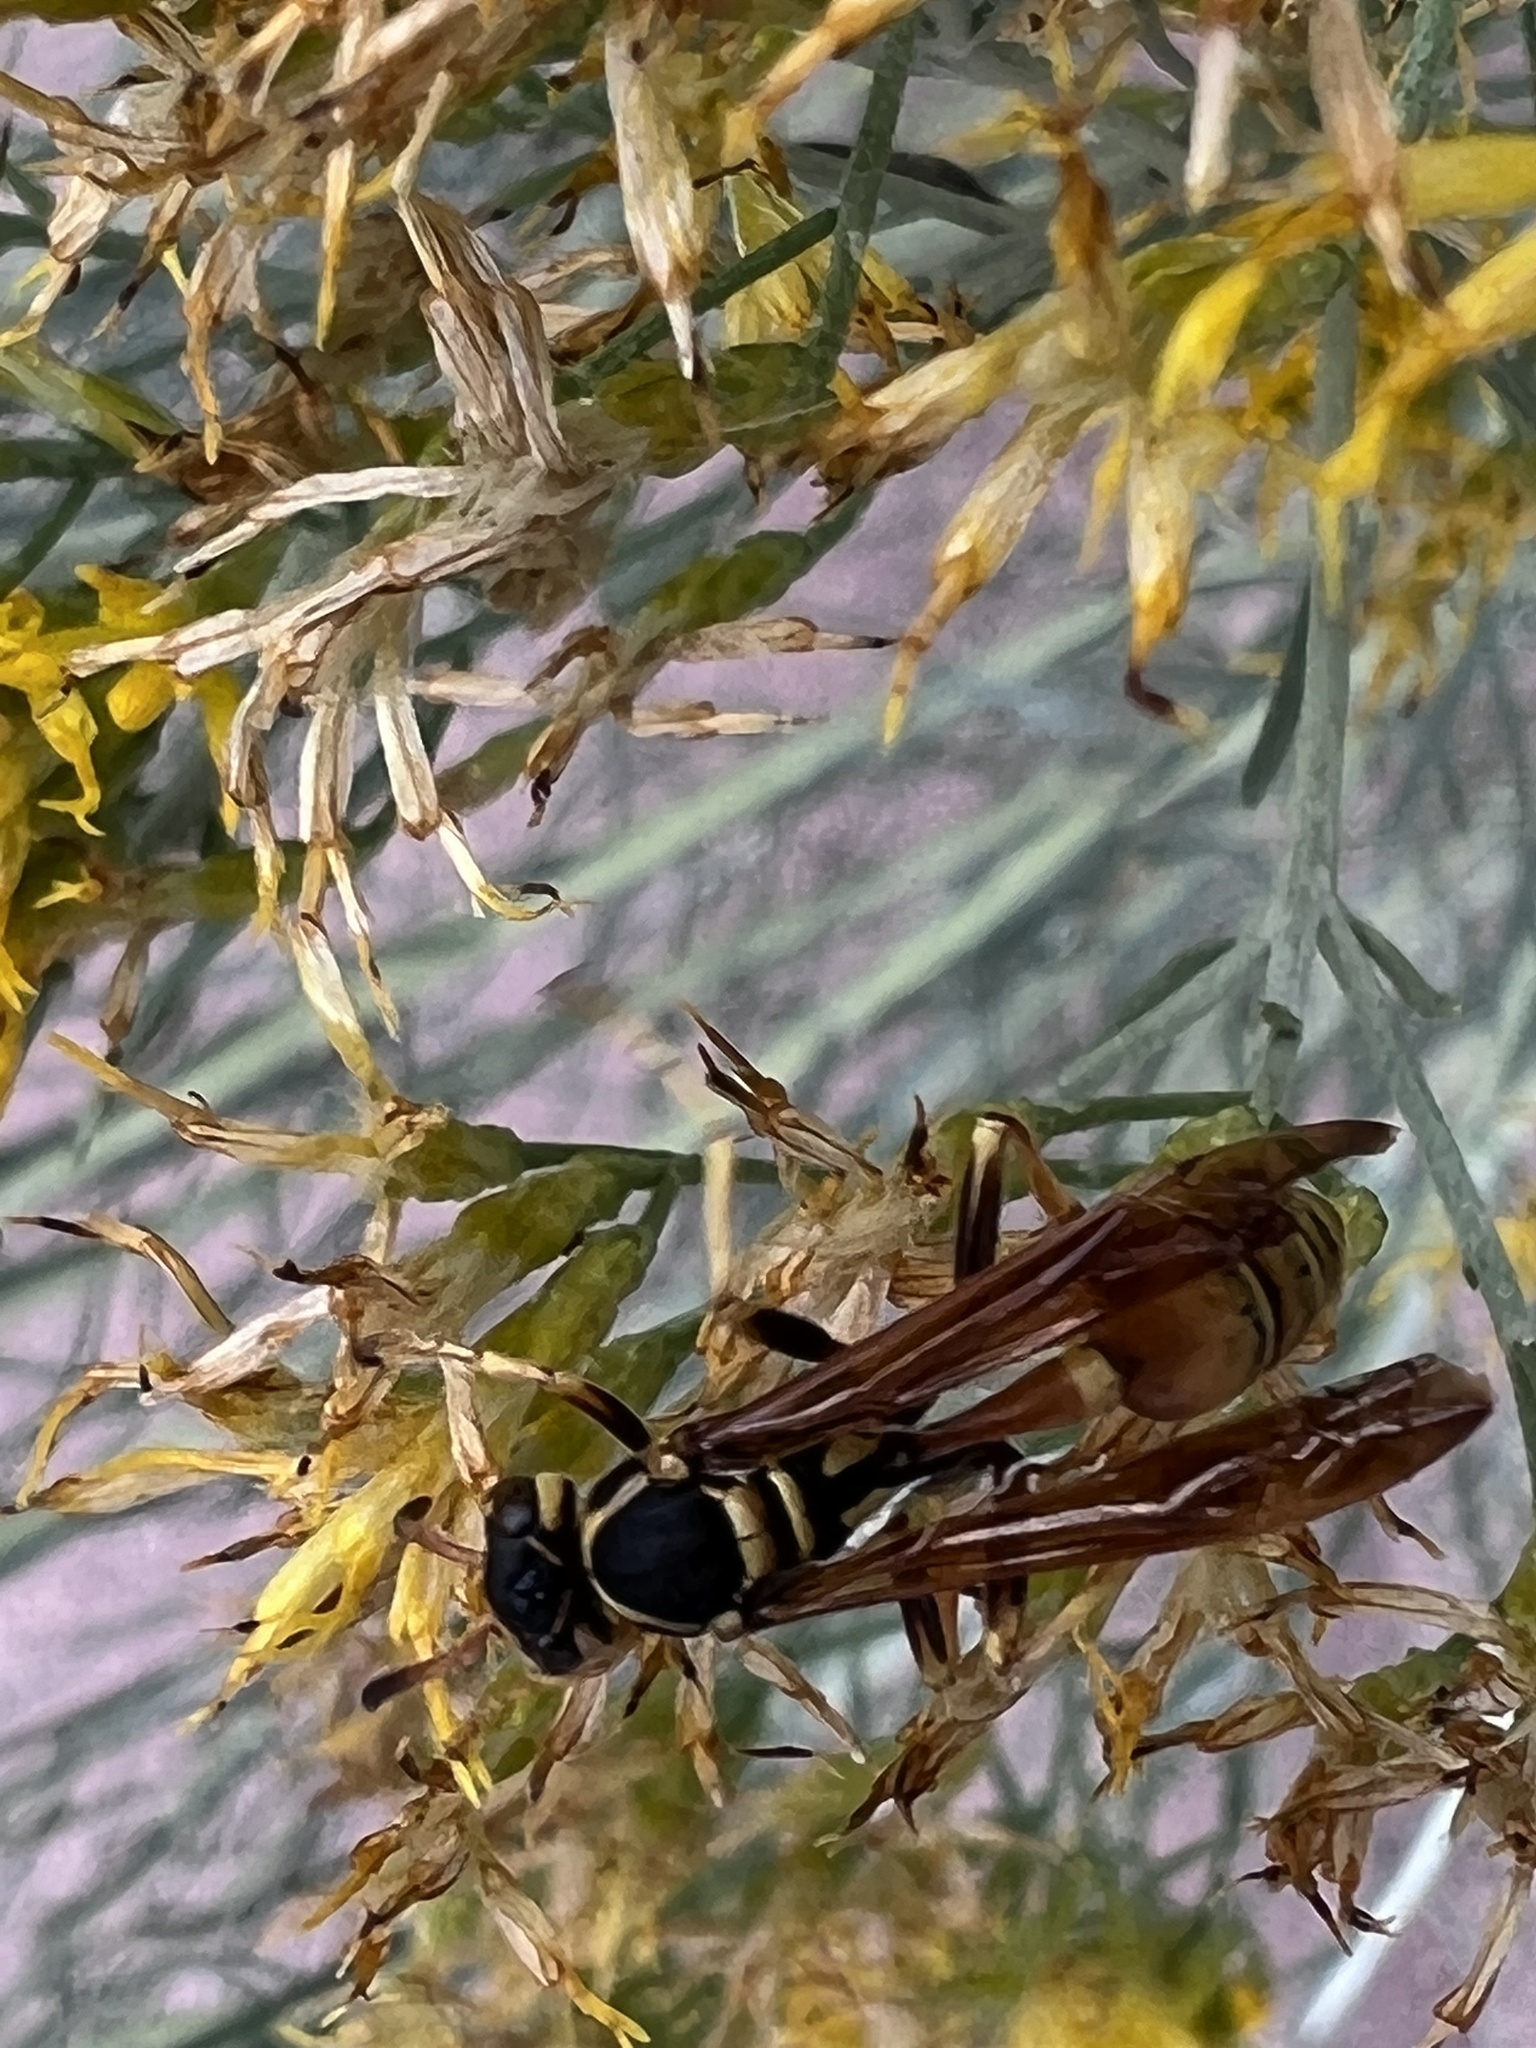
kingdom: Animalia
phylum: Arthropoda
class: Insecta
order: Hymenoptera
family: Vespidae
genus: Mischocyttarus
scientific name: Mischocyttarus flavitarsis
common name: Wasp
